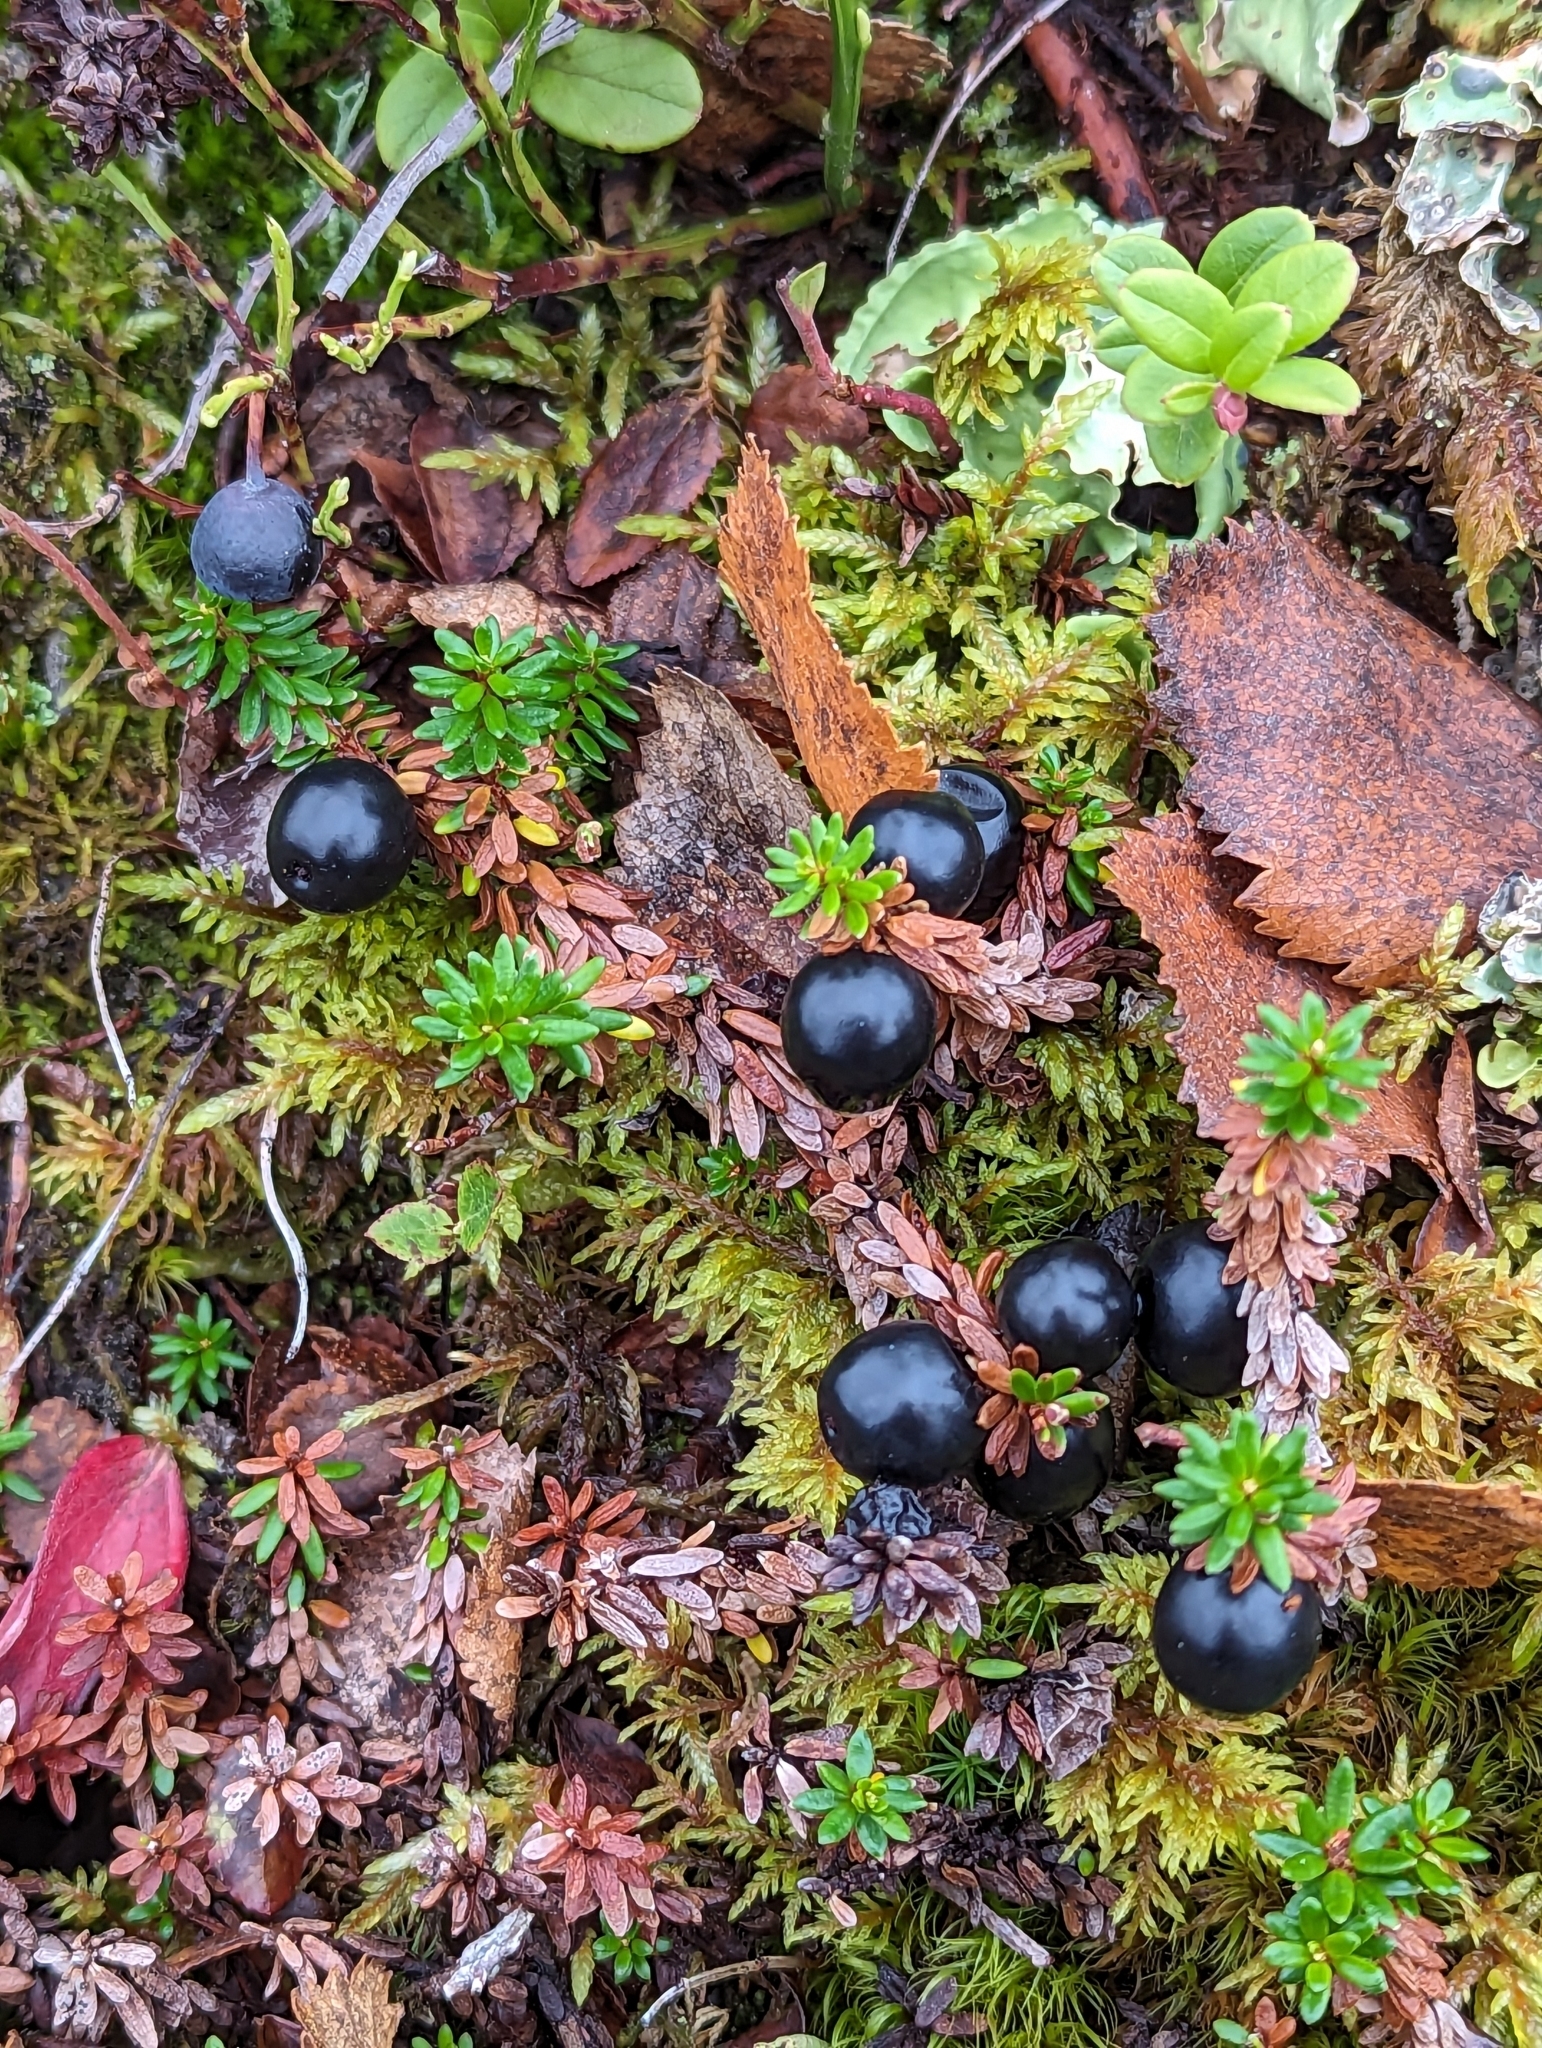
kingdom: Plantae
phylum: Tracheophyta
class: Magnoliopsida
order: Ericales
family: Ericaceae
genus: Empetrum
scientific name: Empetrum nigrum
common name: Black crowberry
